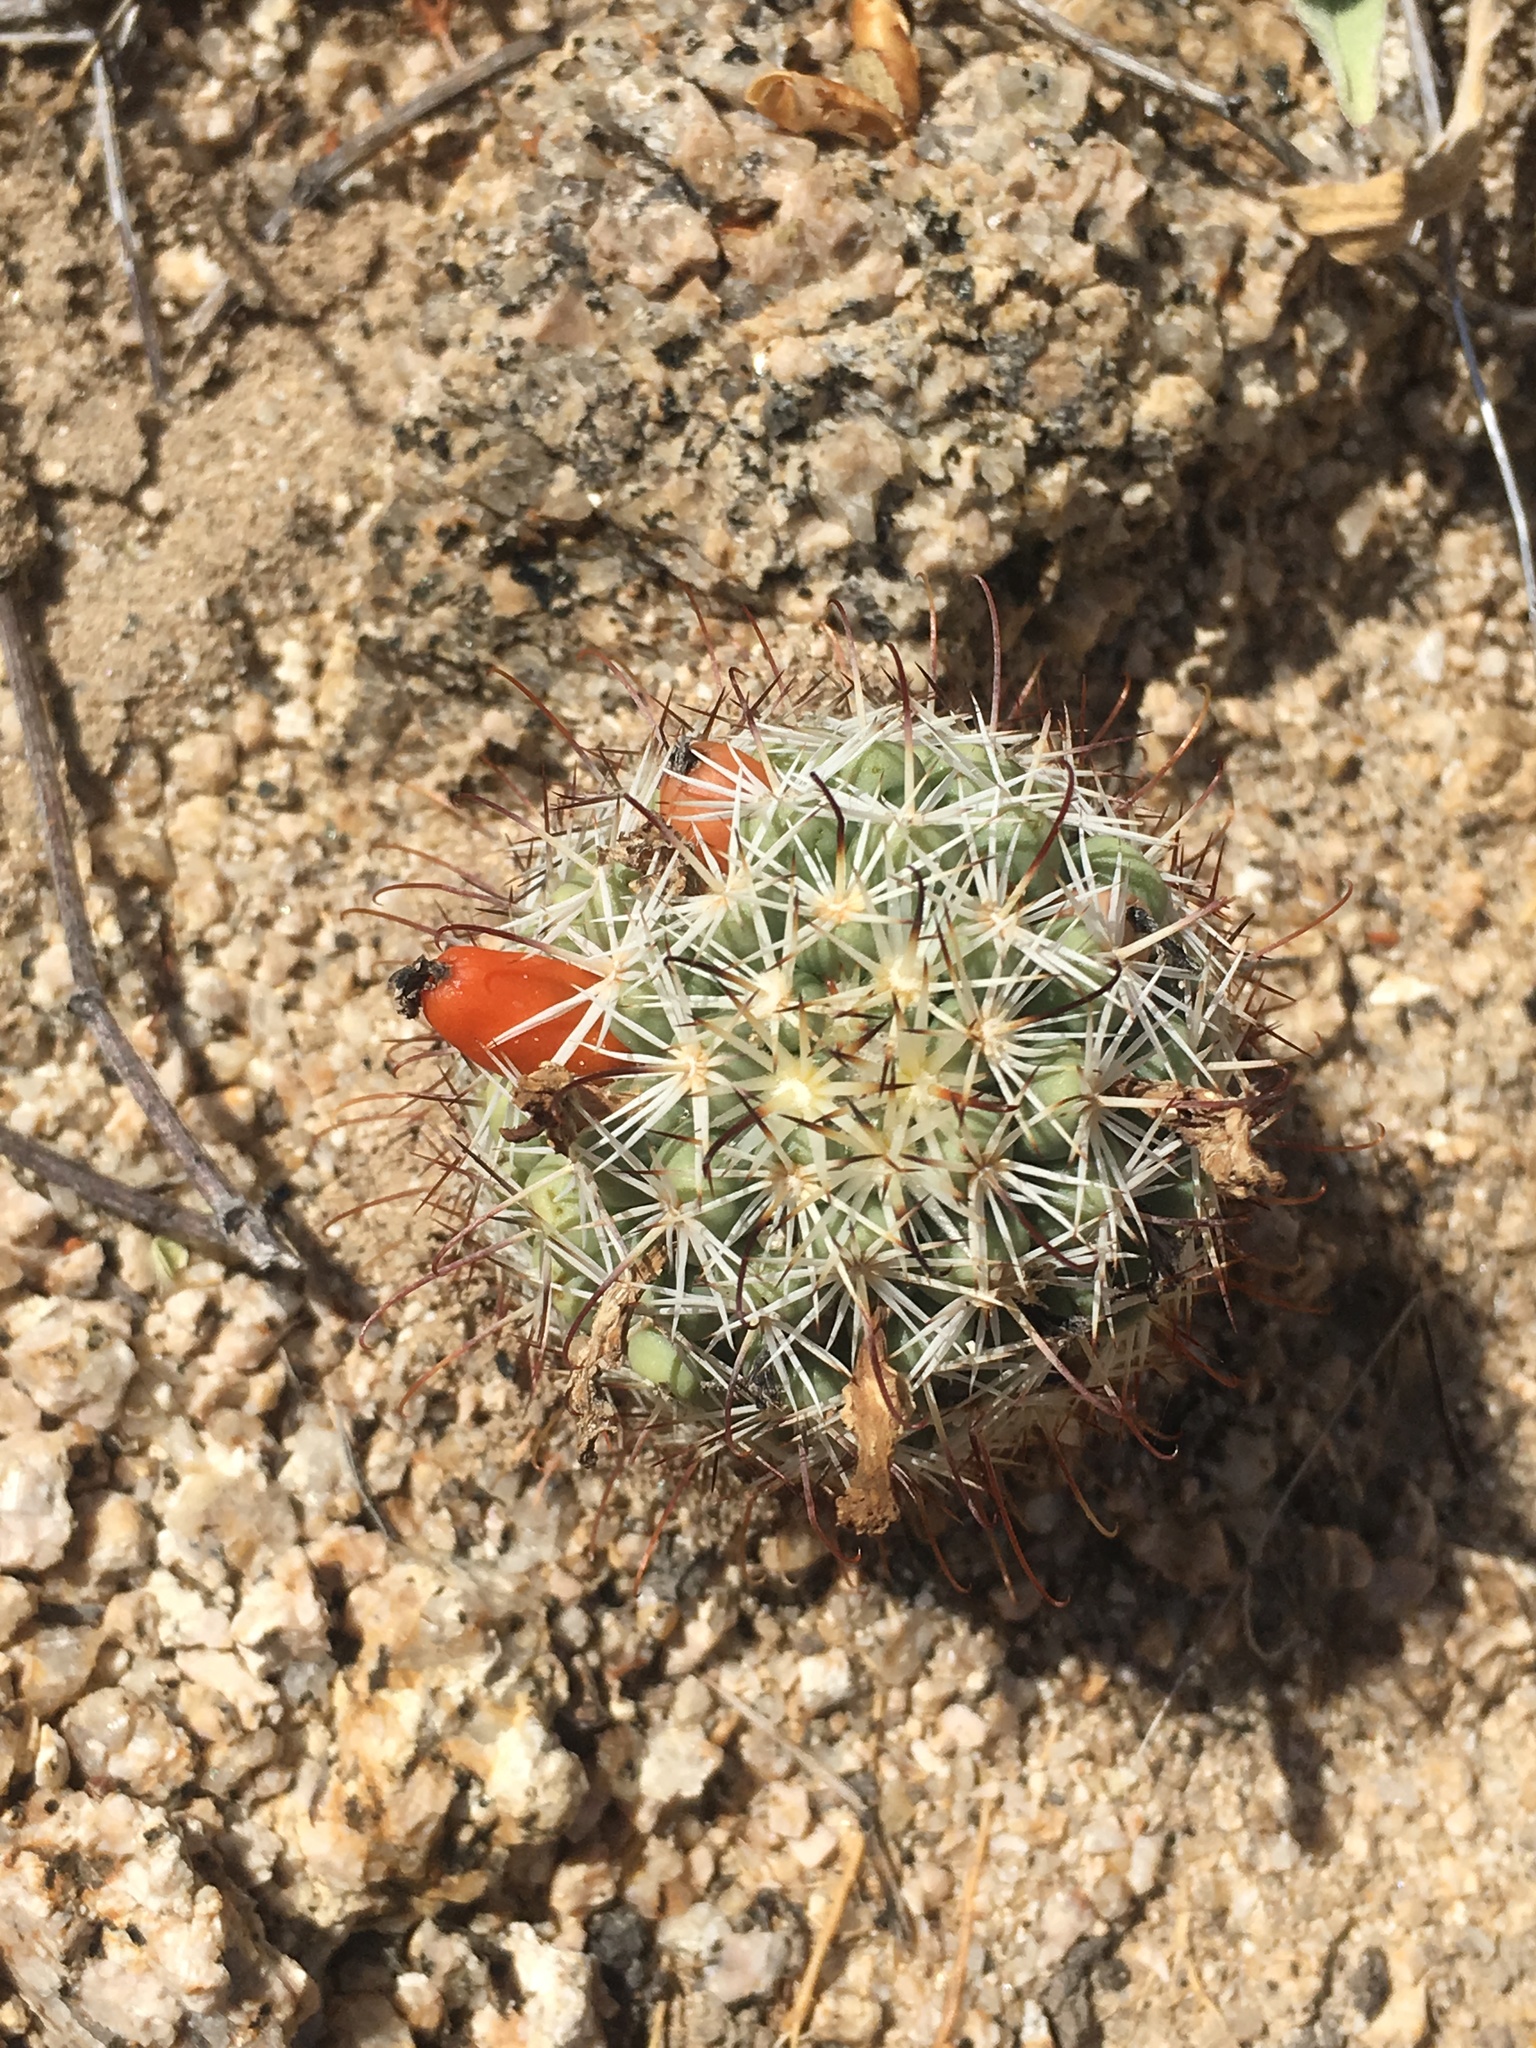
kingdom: Plantae
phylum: Tracheophyta
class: Magnoliopsida
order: Caryophyllales
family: Cactaceae
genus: Cochemiea
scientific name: Cochemiea schumannii
